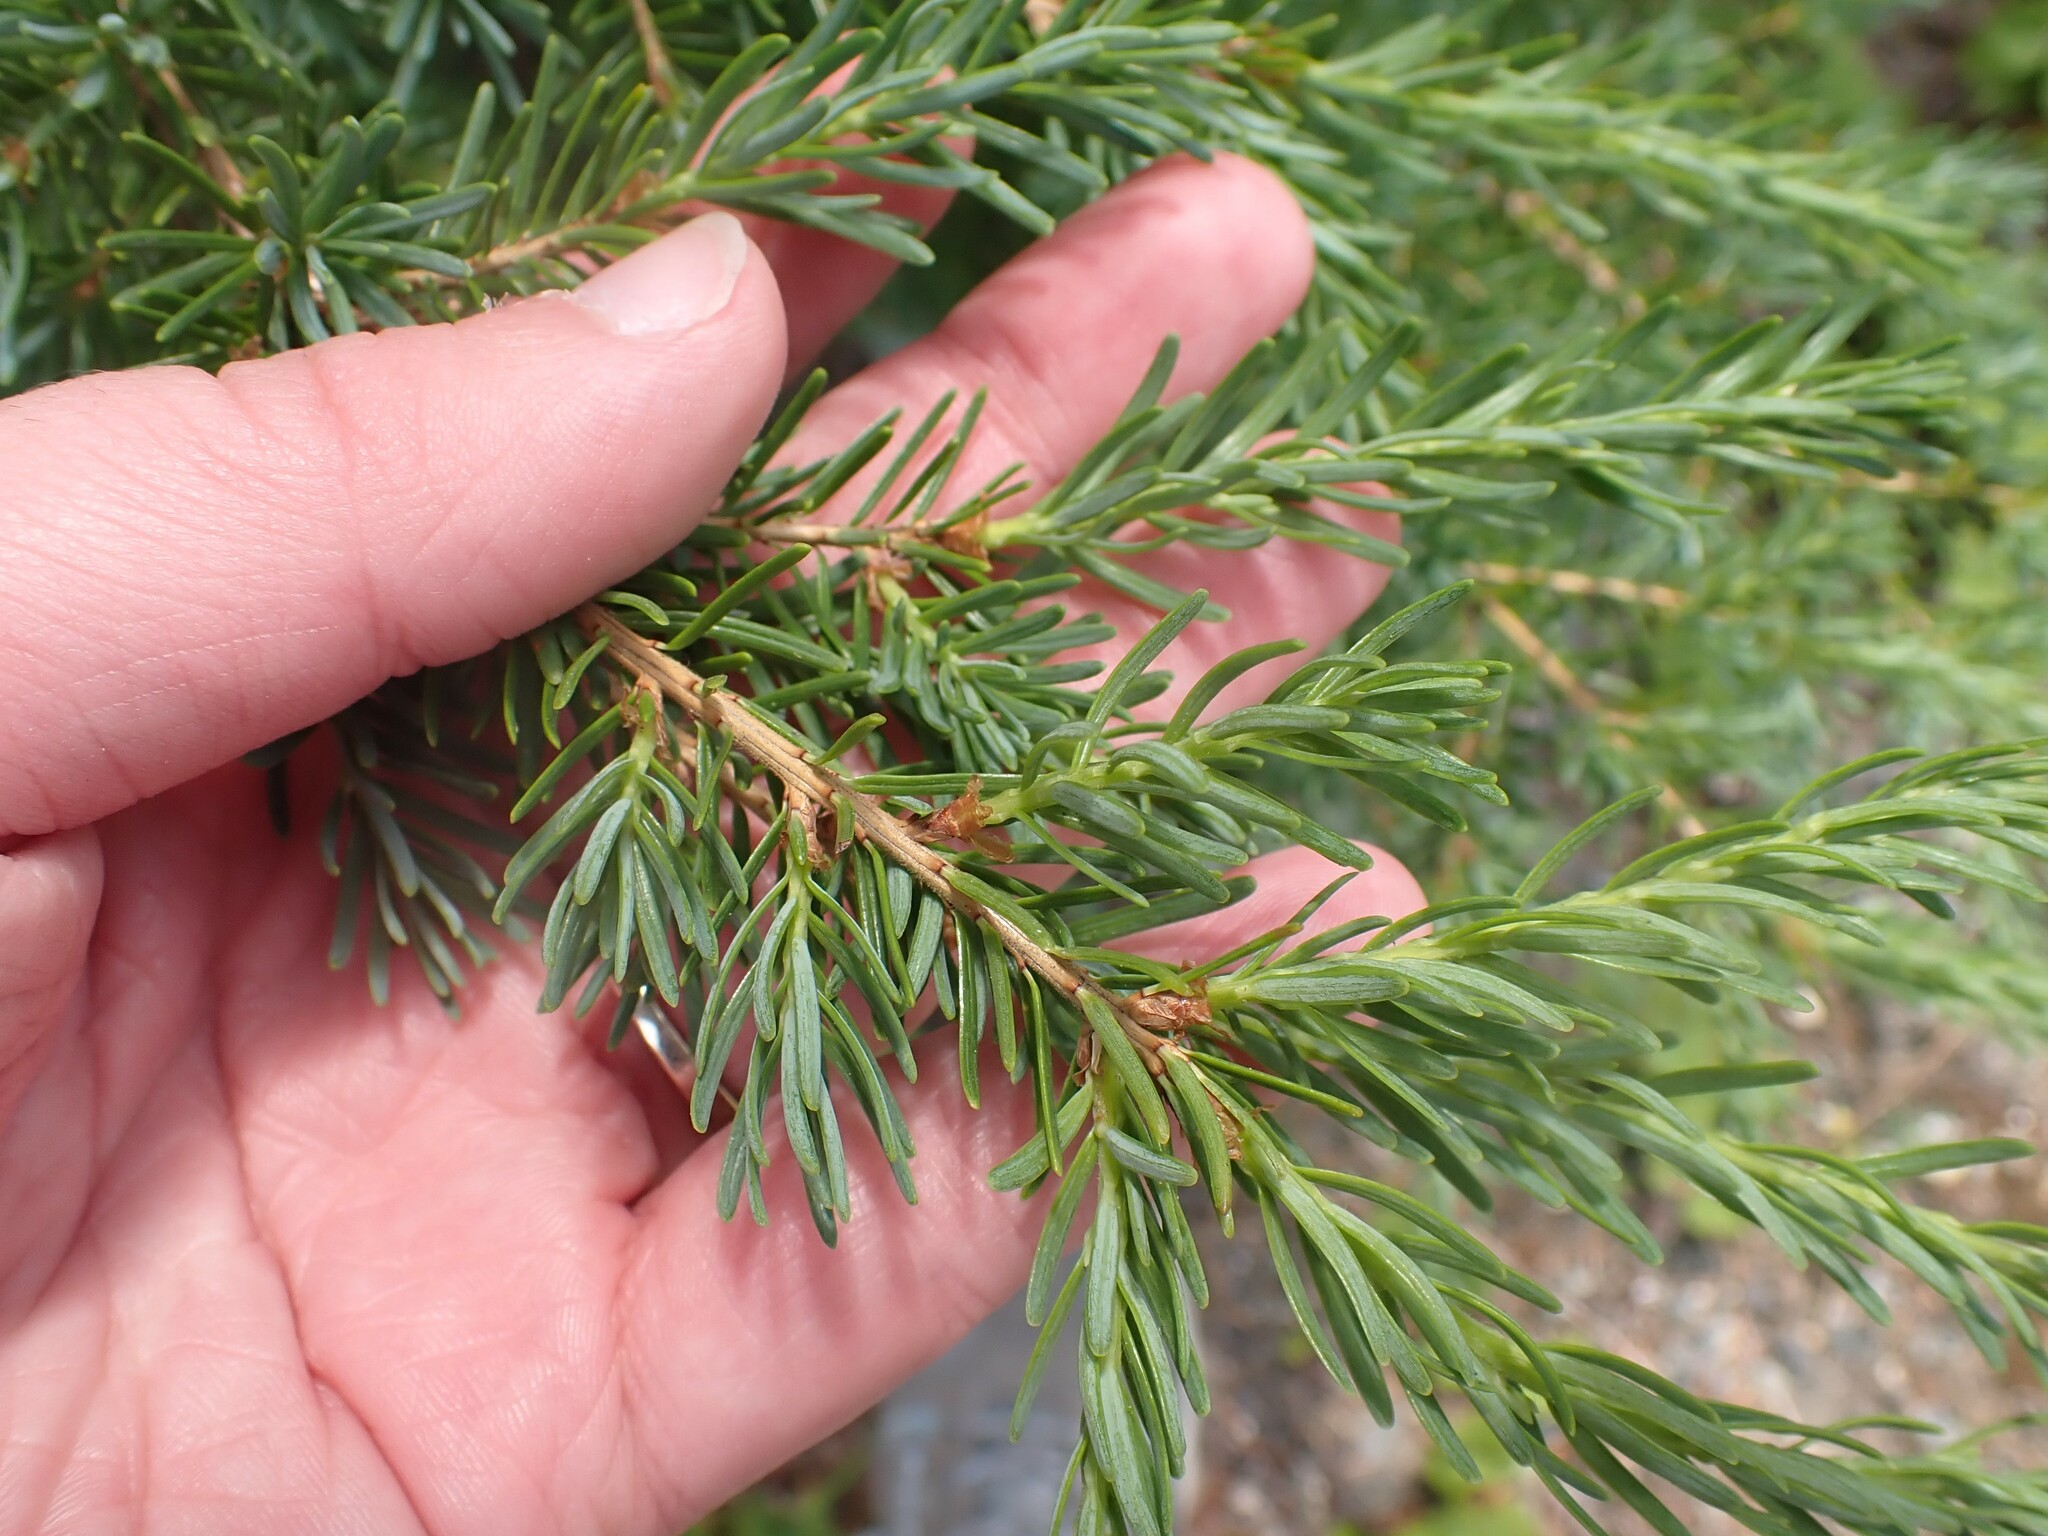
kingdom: Plantae
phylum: Tracheophyta
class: Pinopsida
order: Pinales
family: Pinaceae
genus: Tsuga
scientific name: Tsuga mertensiana
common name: Mountain hemlock
